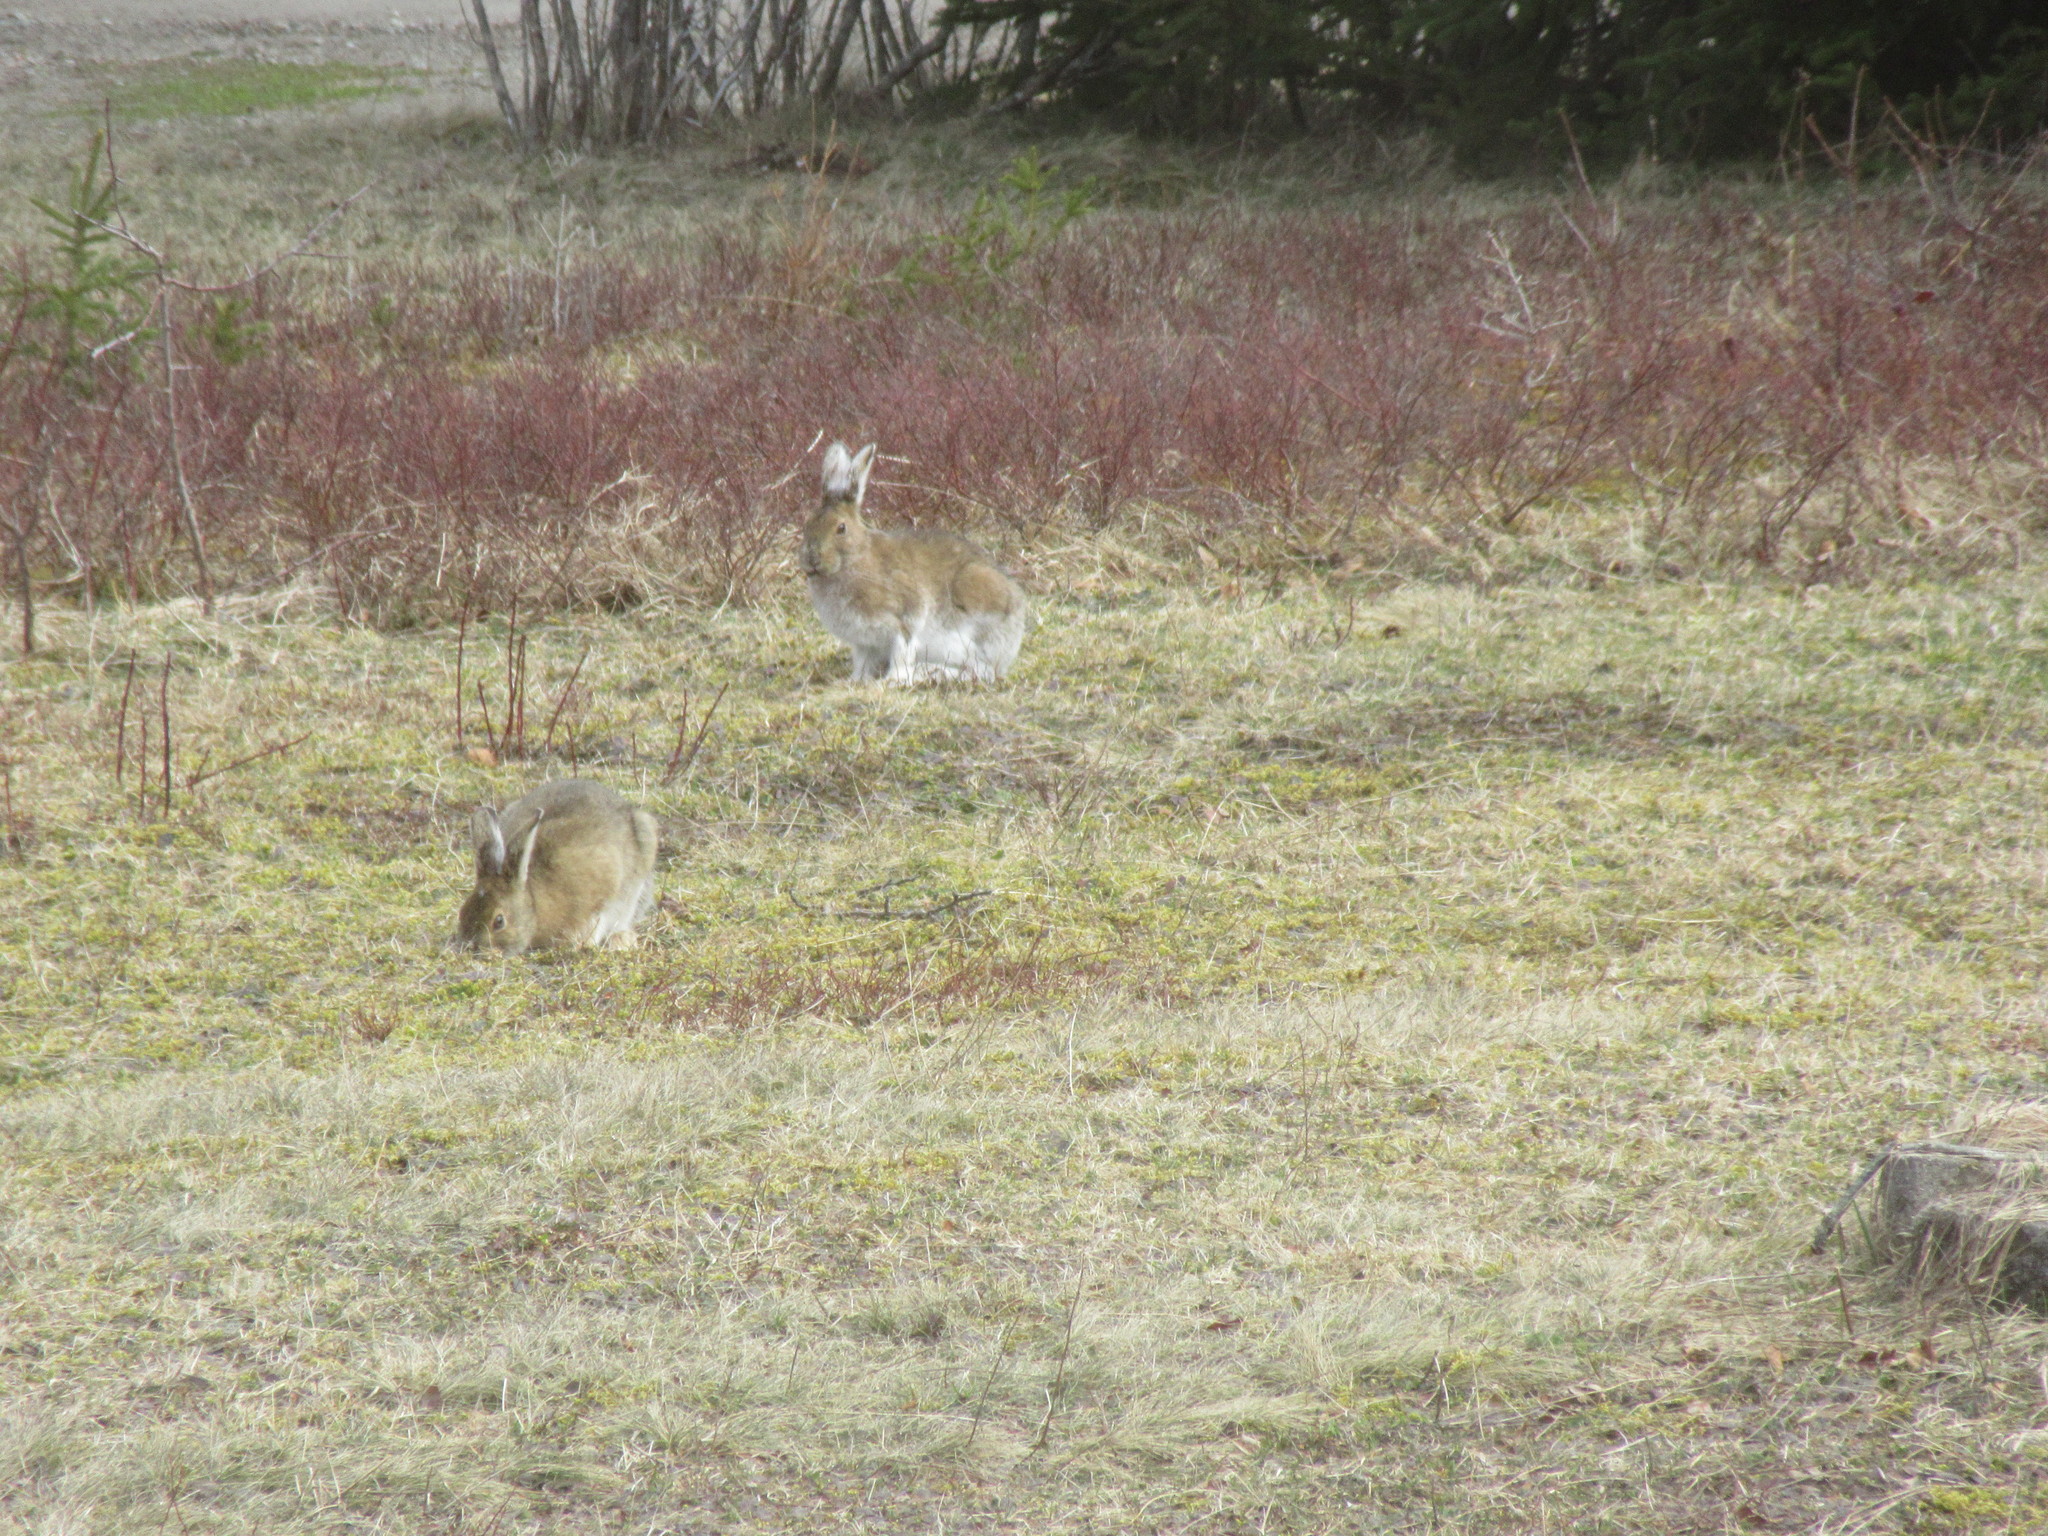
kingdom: Animalia
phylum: Chordata
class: Mammalia
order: Lagomorpha
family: Leporidae
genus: Lepus
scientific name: Lepus americanus
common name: Snowshoe hare
